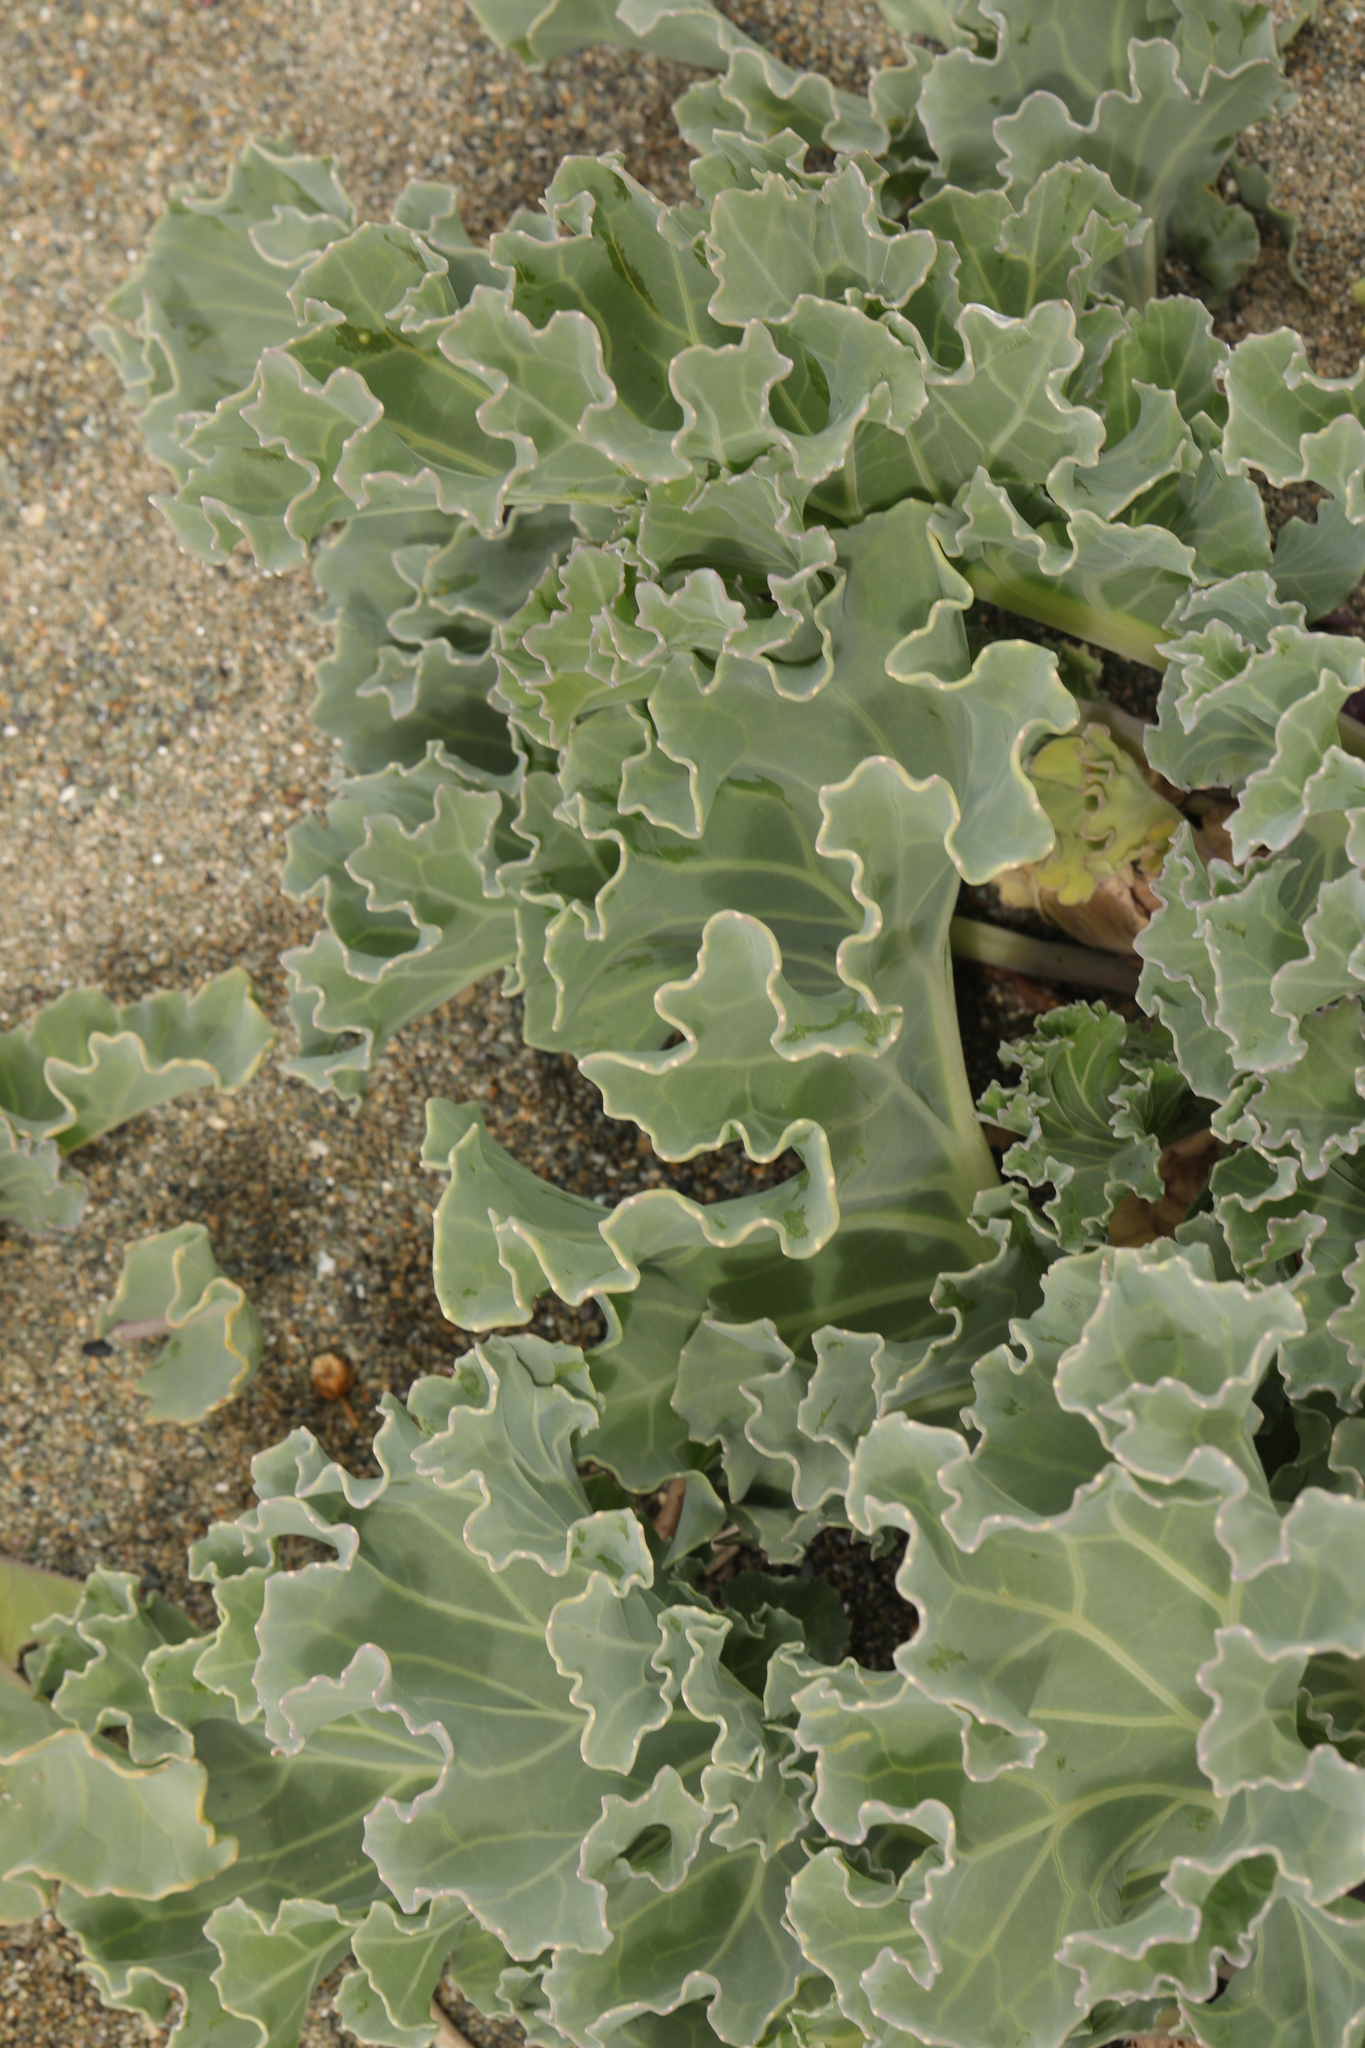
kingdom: Plantae
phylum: Tracheophyta
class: Magnoliopsida
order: Brassicales
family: Brassicaceae
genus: Crambe
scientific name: Crambe maritima
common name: Sea-kale
